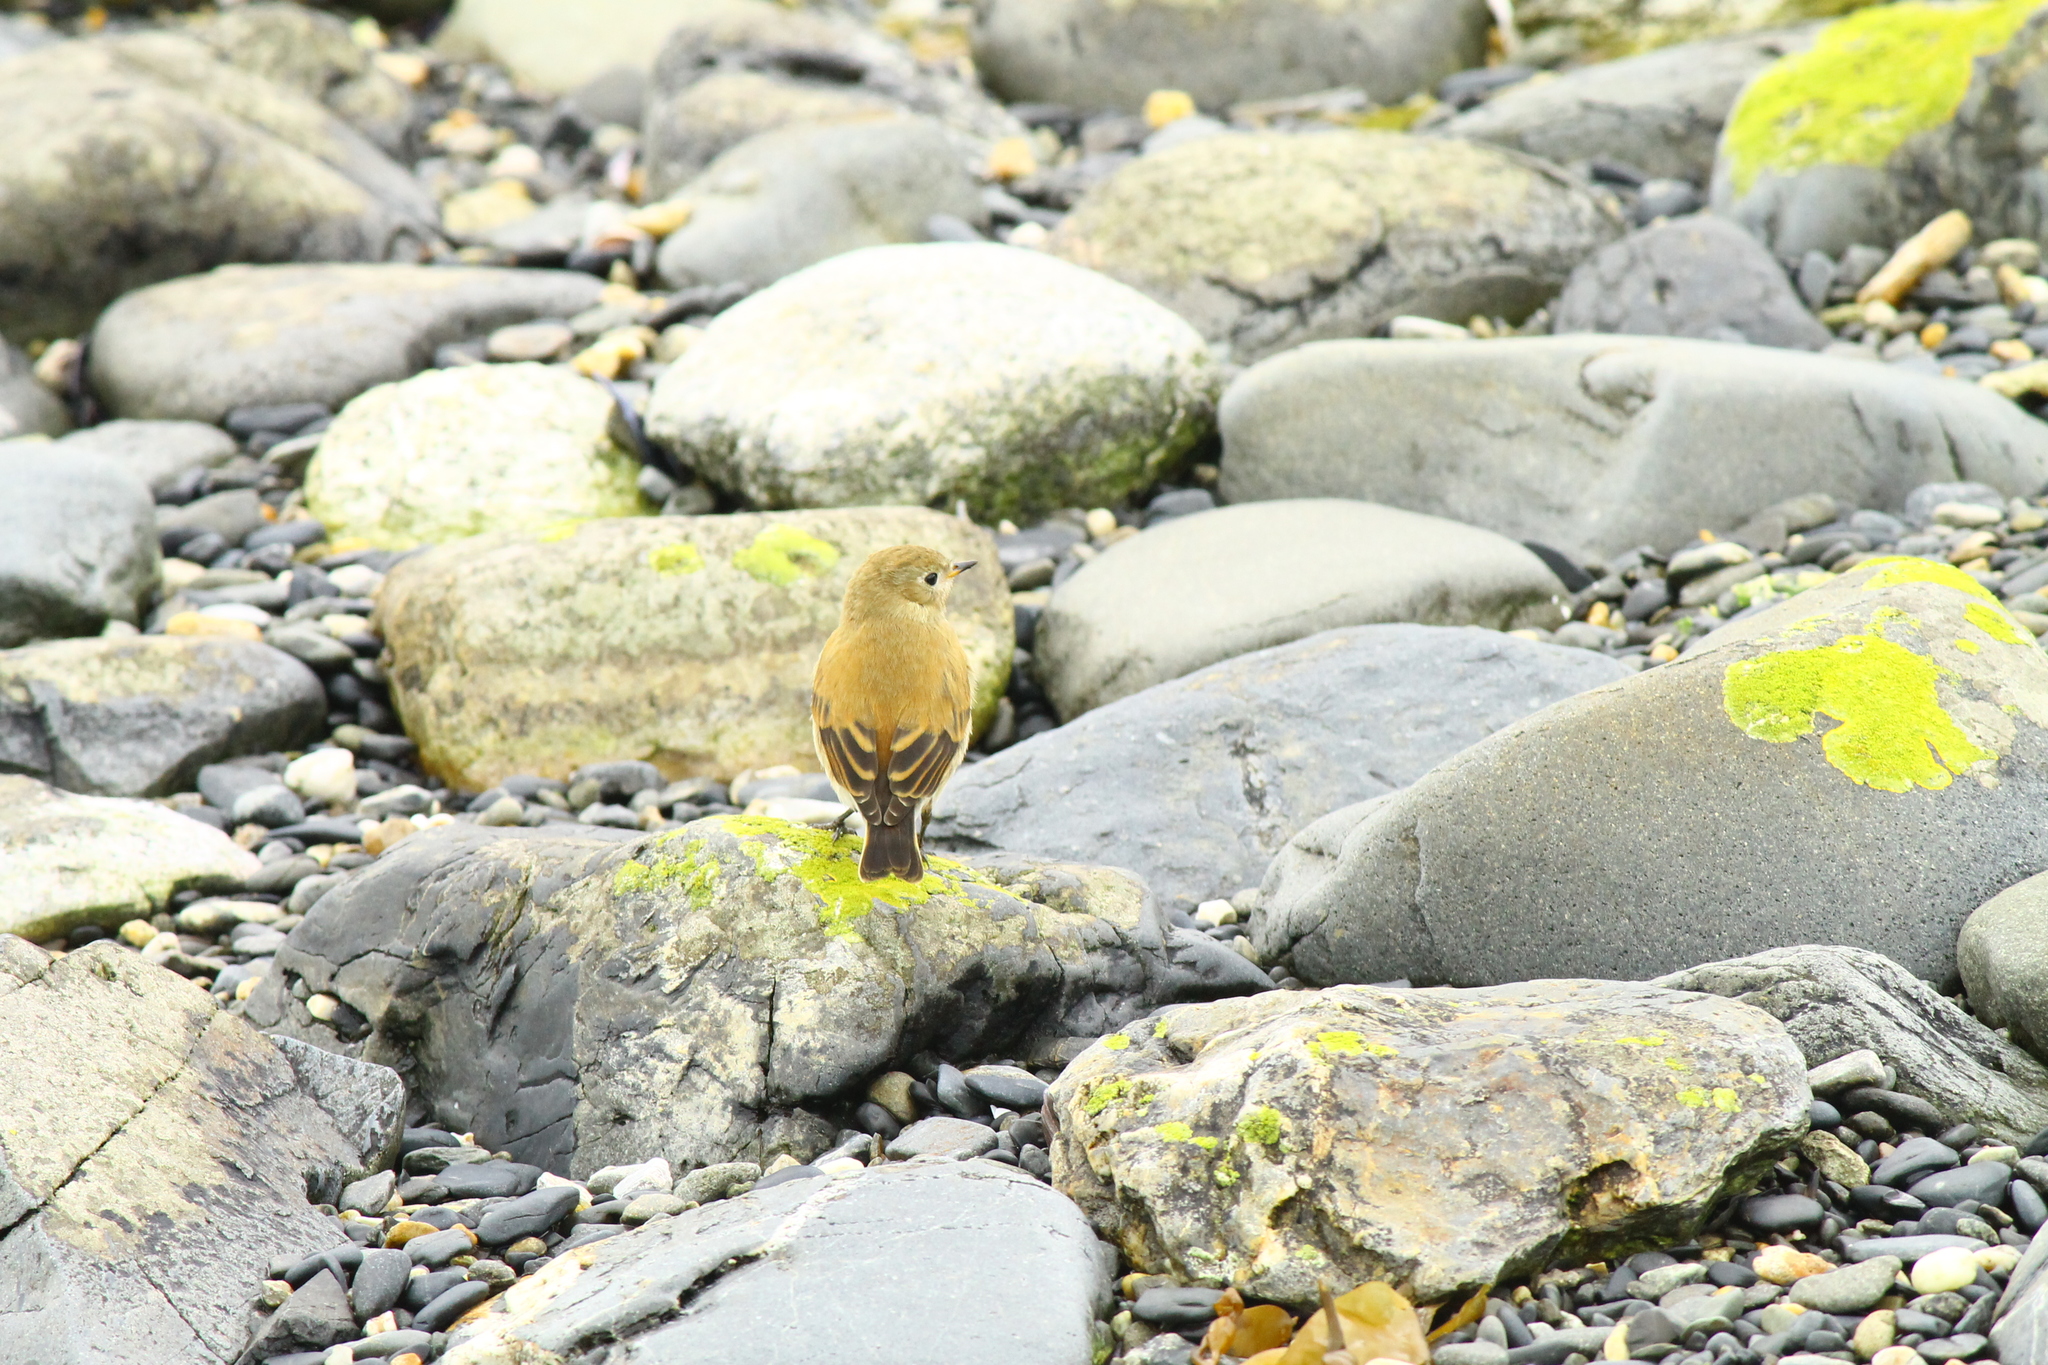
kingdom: Animalia
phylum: Chordata
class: Aves
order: Passeriformes
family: Tyrannidae
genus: Lessonia
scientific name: Lessonia rufa
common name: Austral negrito
